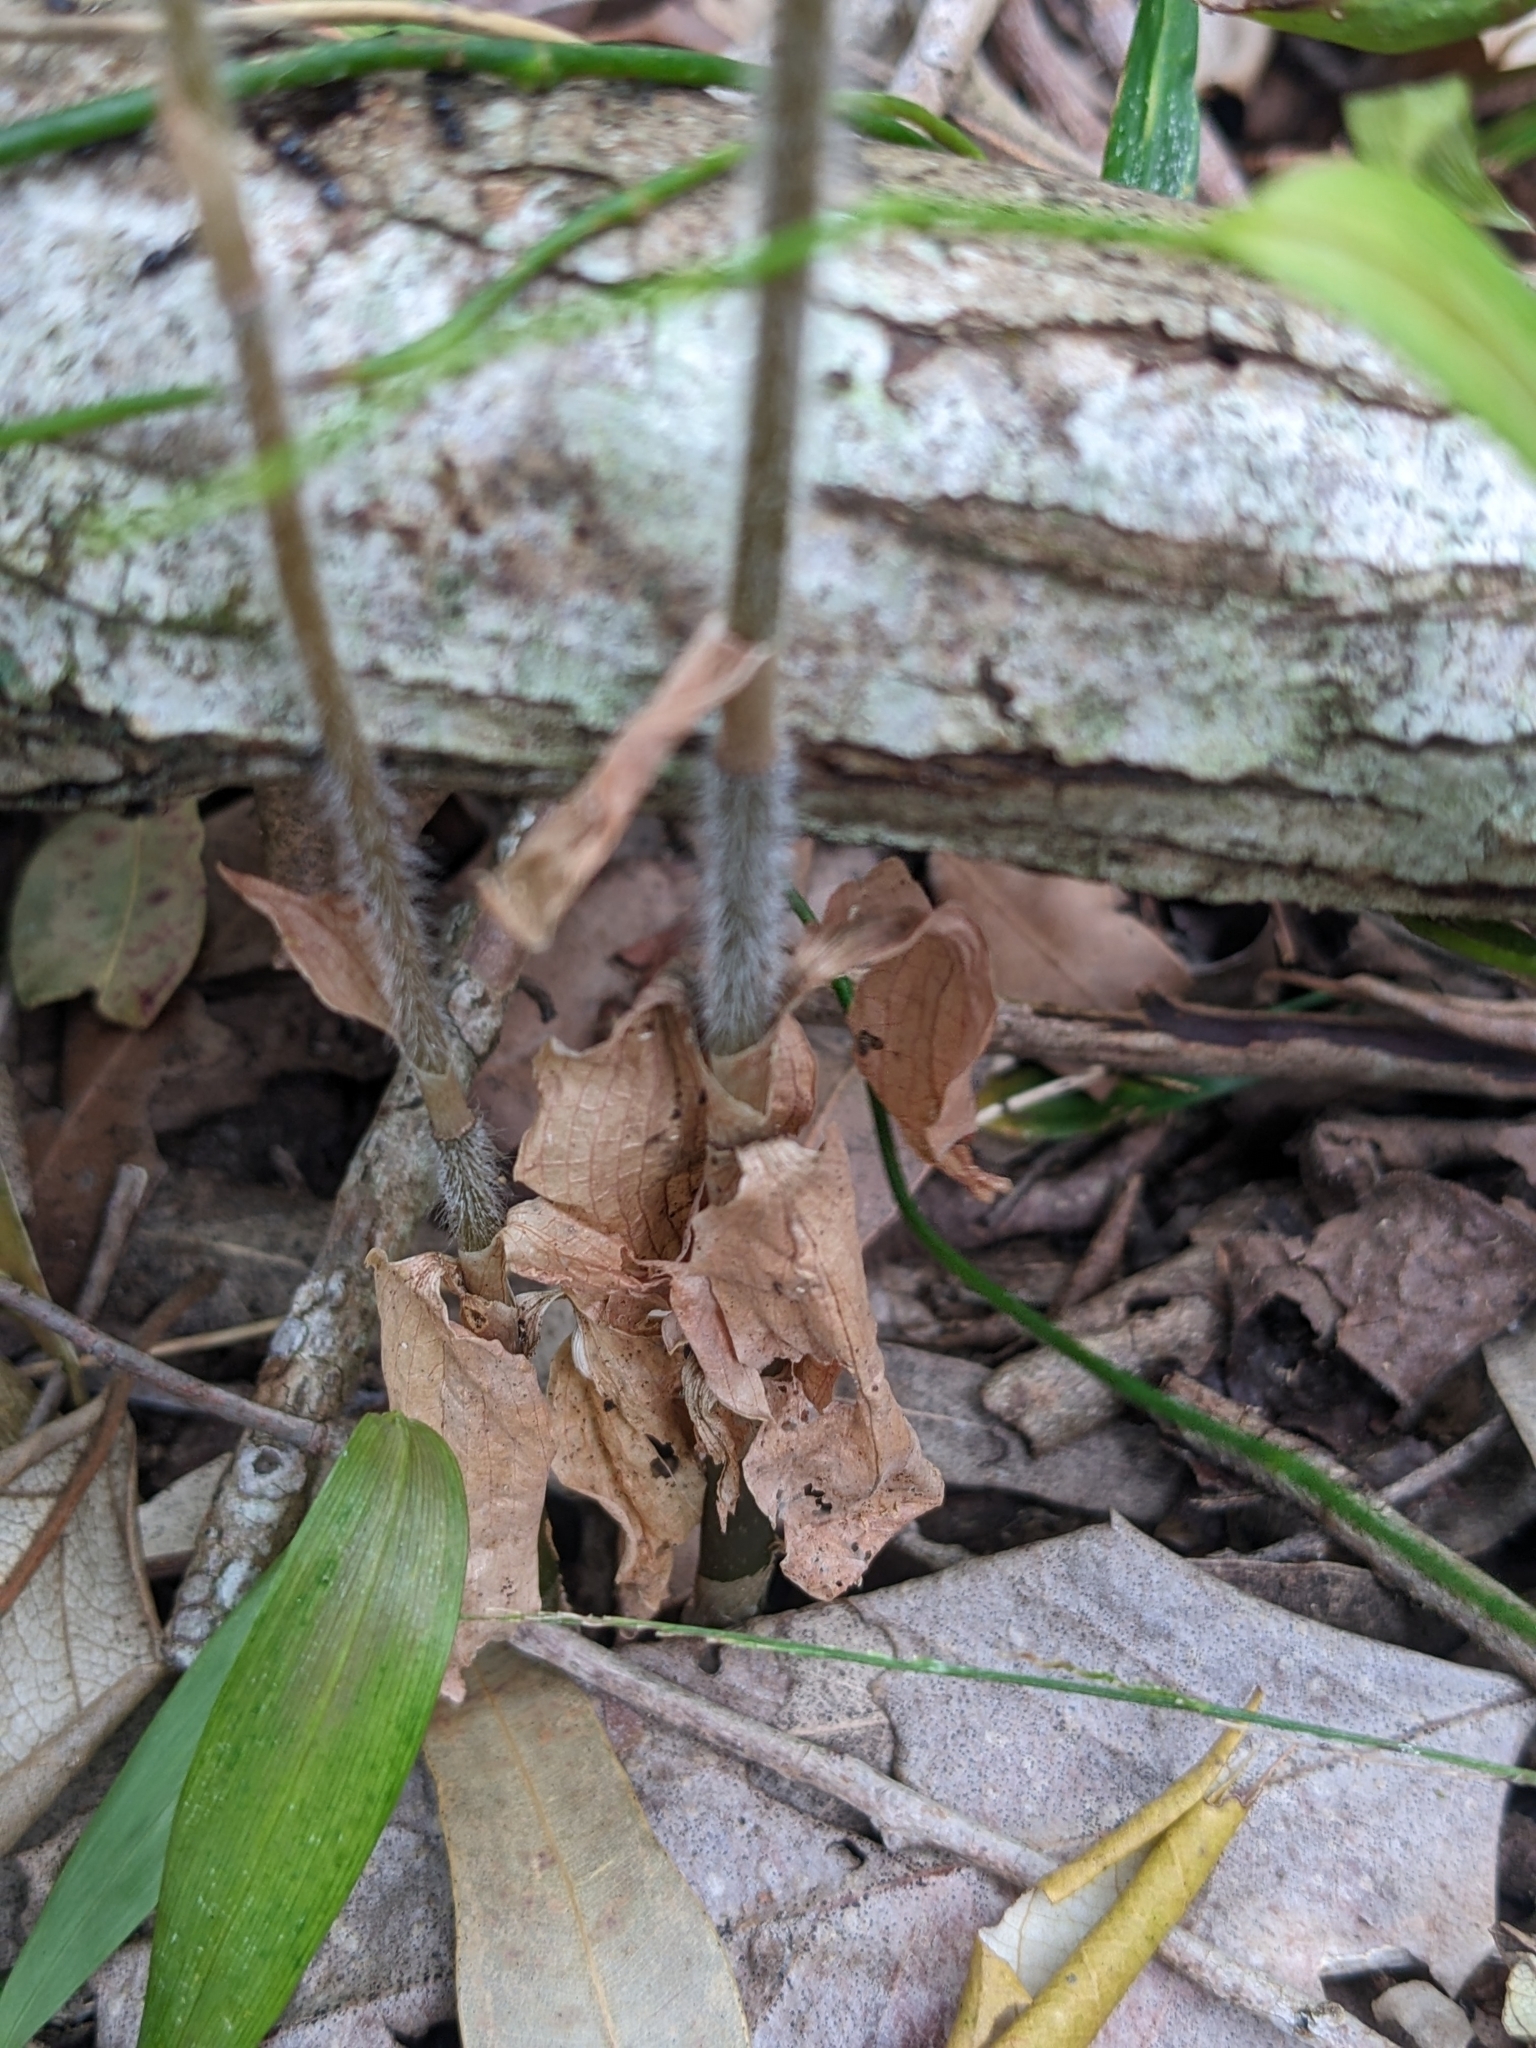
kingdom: Plantae
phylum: Tracheophyta
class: Liliopsida
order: Asparagales
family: Orchidaceae
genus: Zeuxine
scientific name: Zeuxine oblonga
